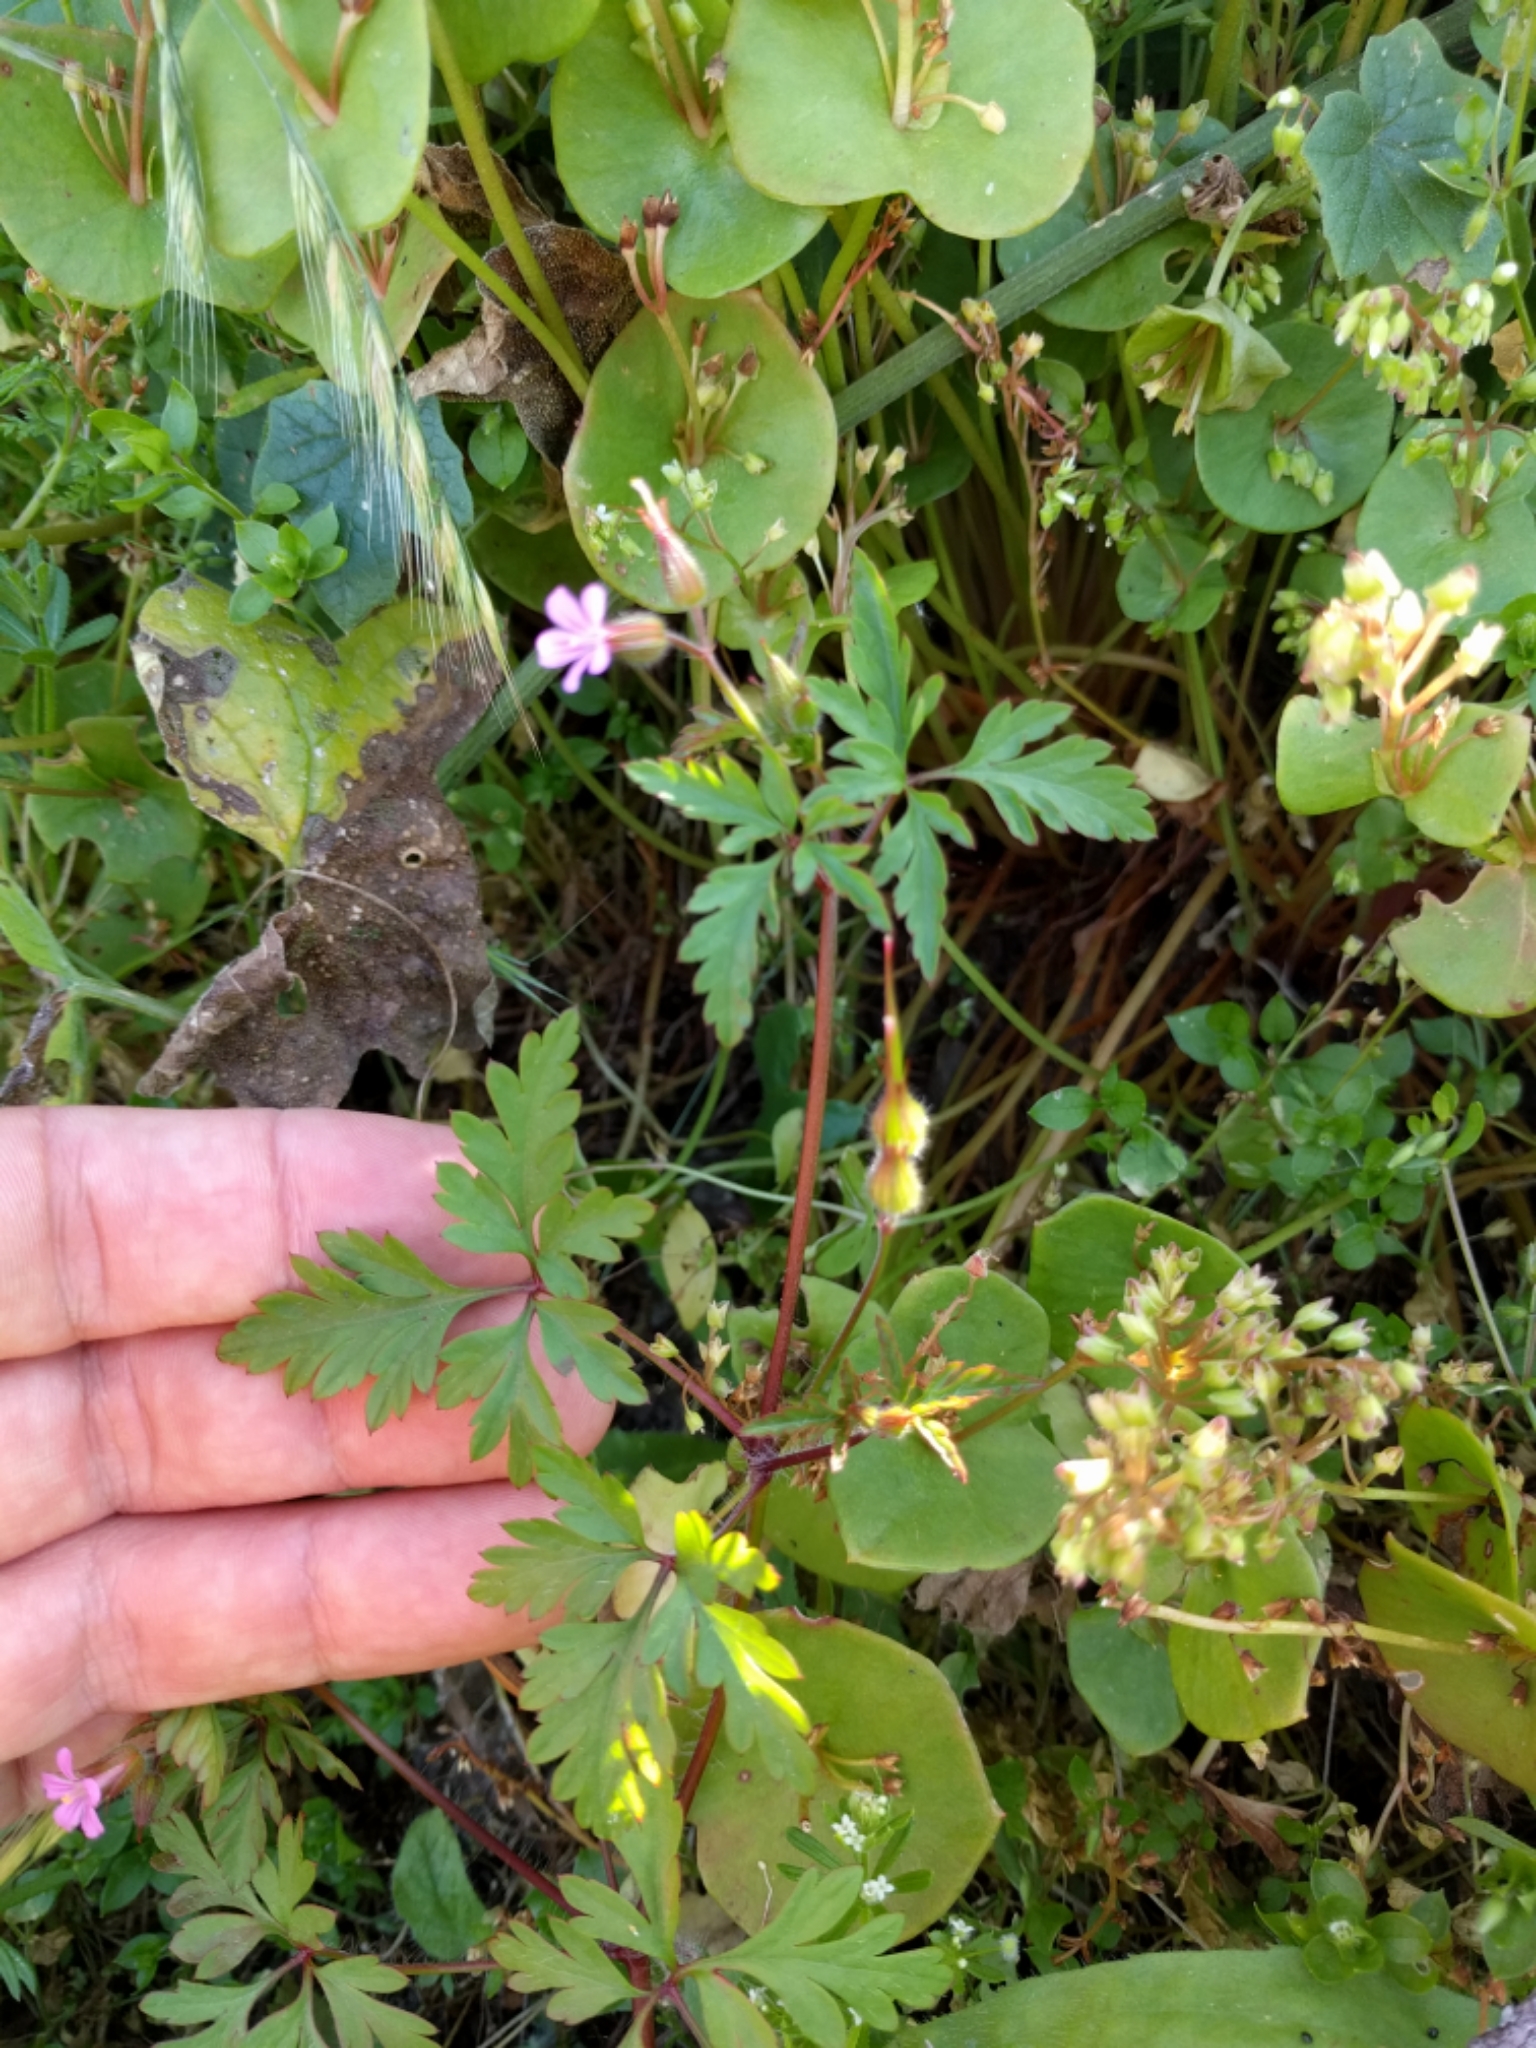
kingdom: Plantae
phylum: Tracheophyta
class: Magnoliopsida
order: Geraniales
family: Geraniaceae
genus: Geranium
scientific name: Geranium robertianum
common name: Herb-robert
